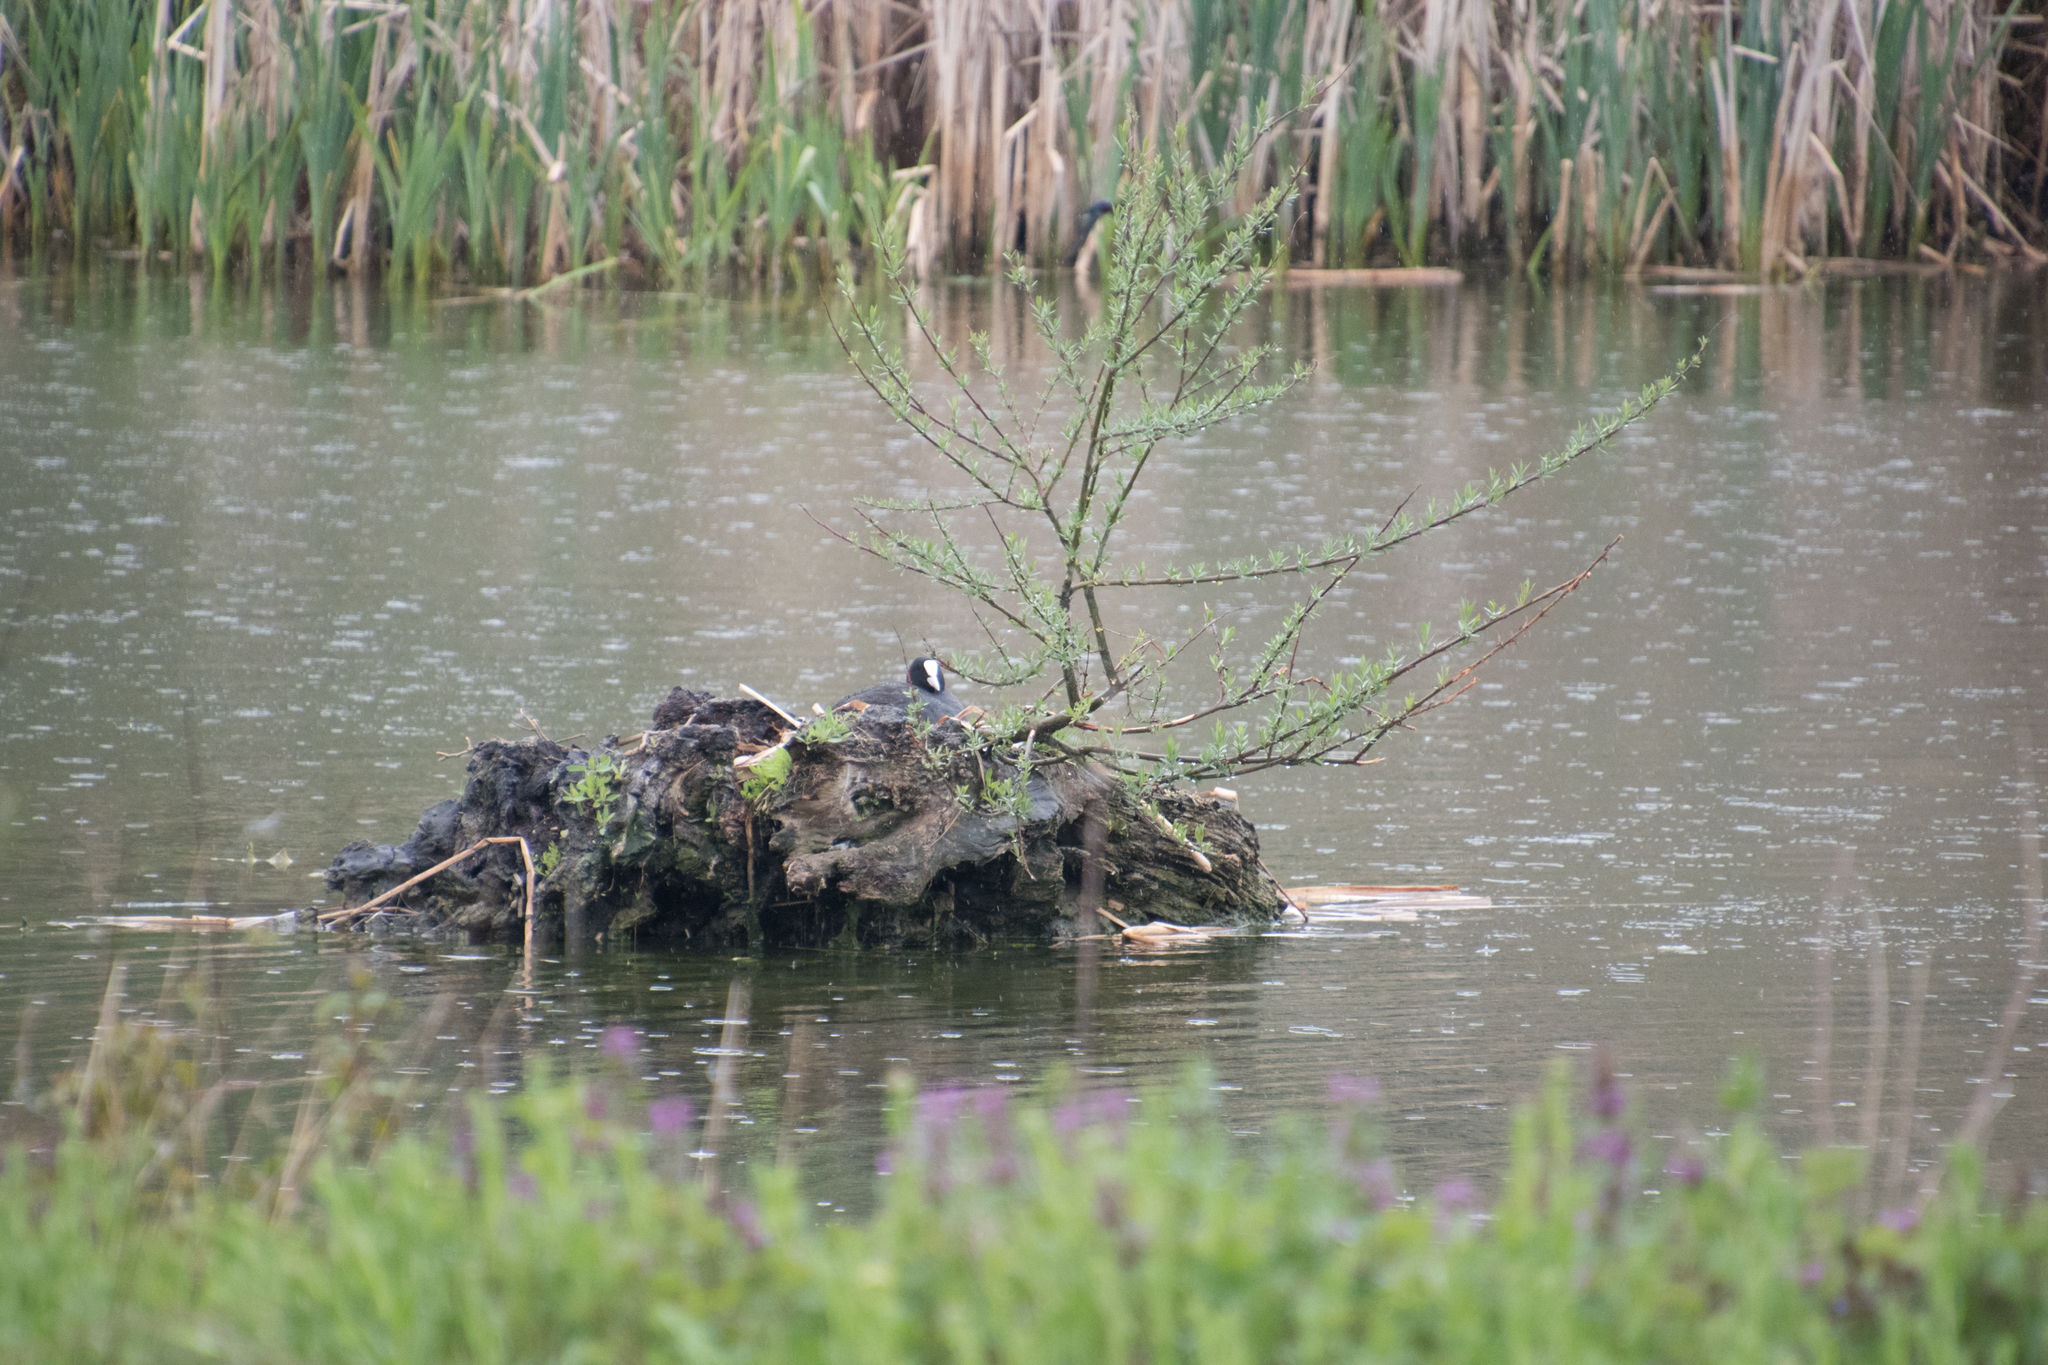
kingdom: Animalia
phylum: Chordata
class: Aves
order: Gruiformes
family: Rallidae
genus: Fulica
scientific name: Fulica atra
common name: Eurasian coot
